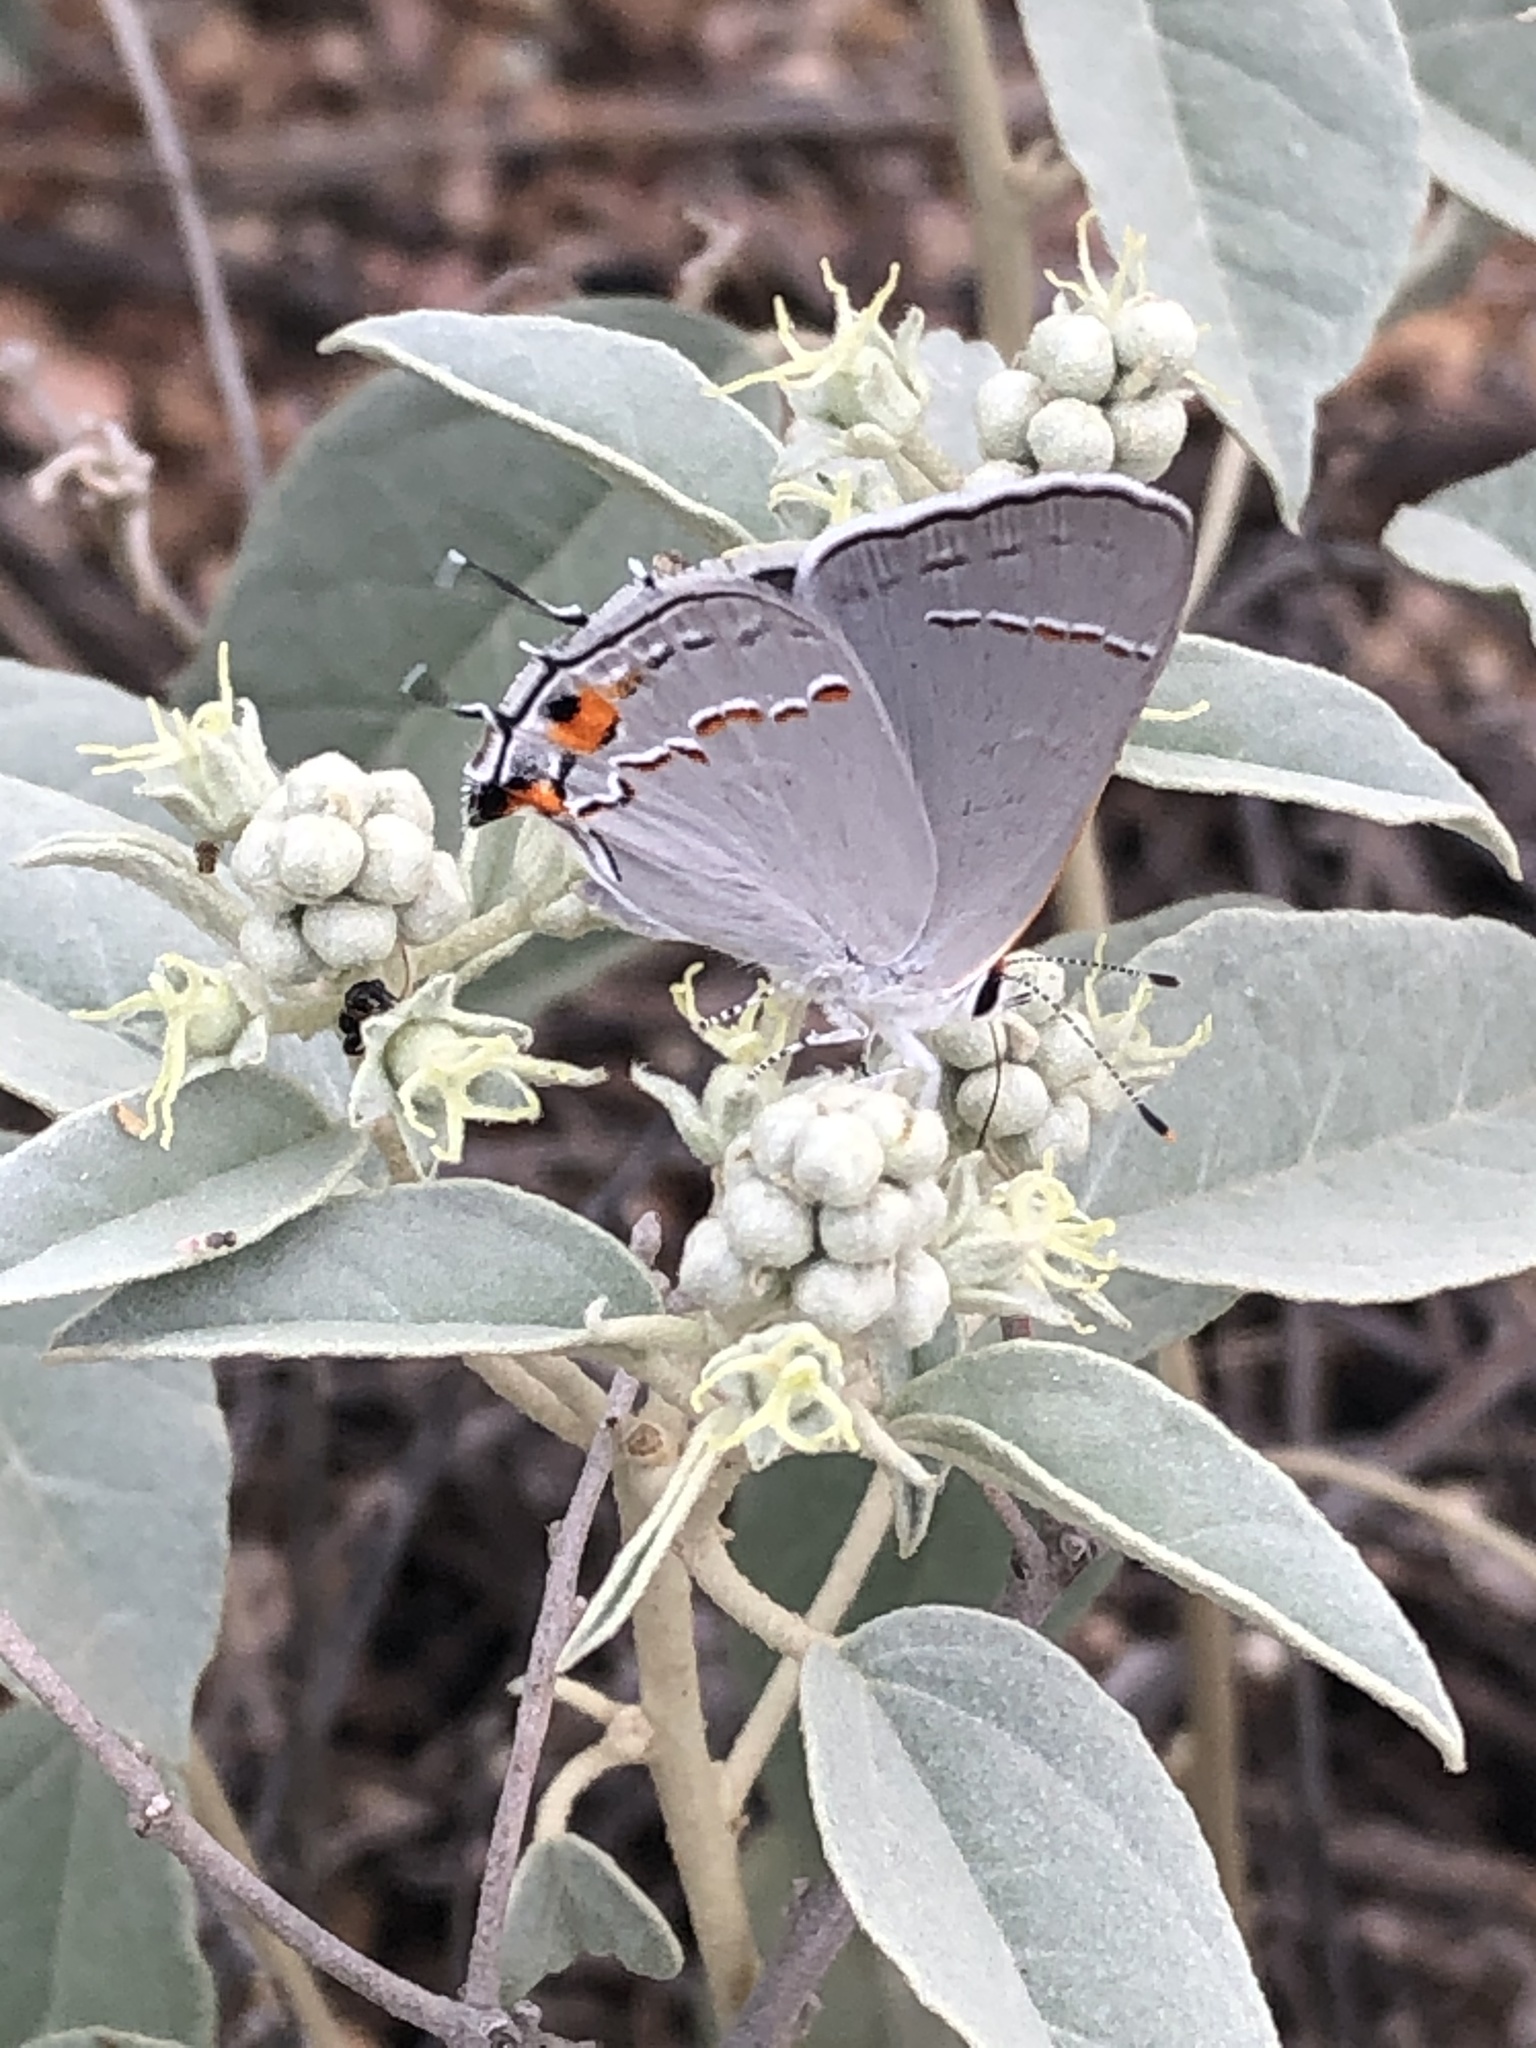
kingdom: Animalia
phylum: Arthropoda
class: Insecta
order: Lepidoptera
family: Lycaenidae
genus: Strymon
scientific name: Strymon melinus
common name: Gray hairstreak
